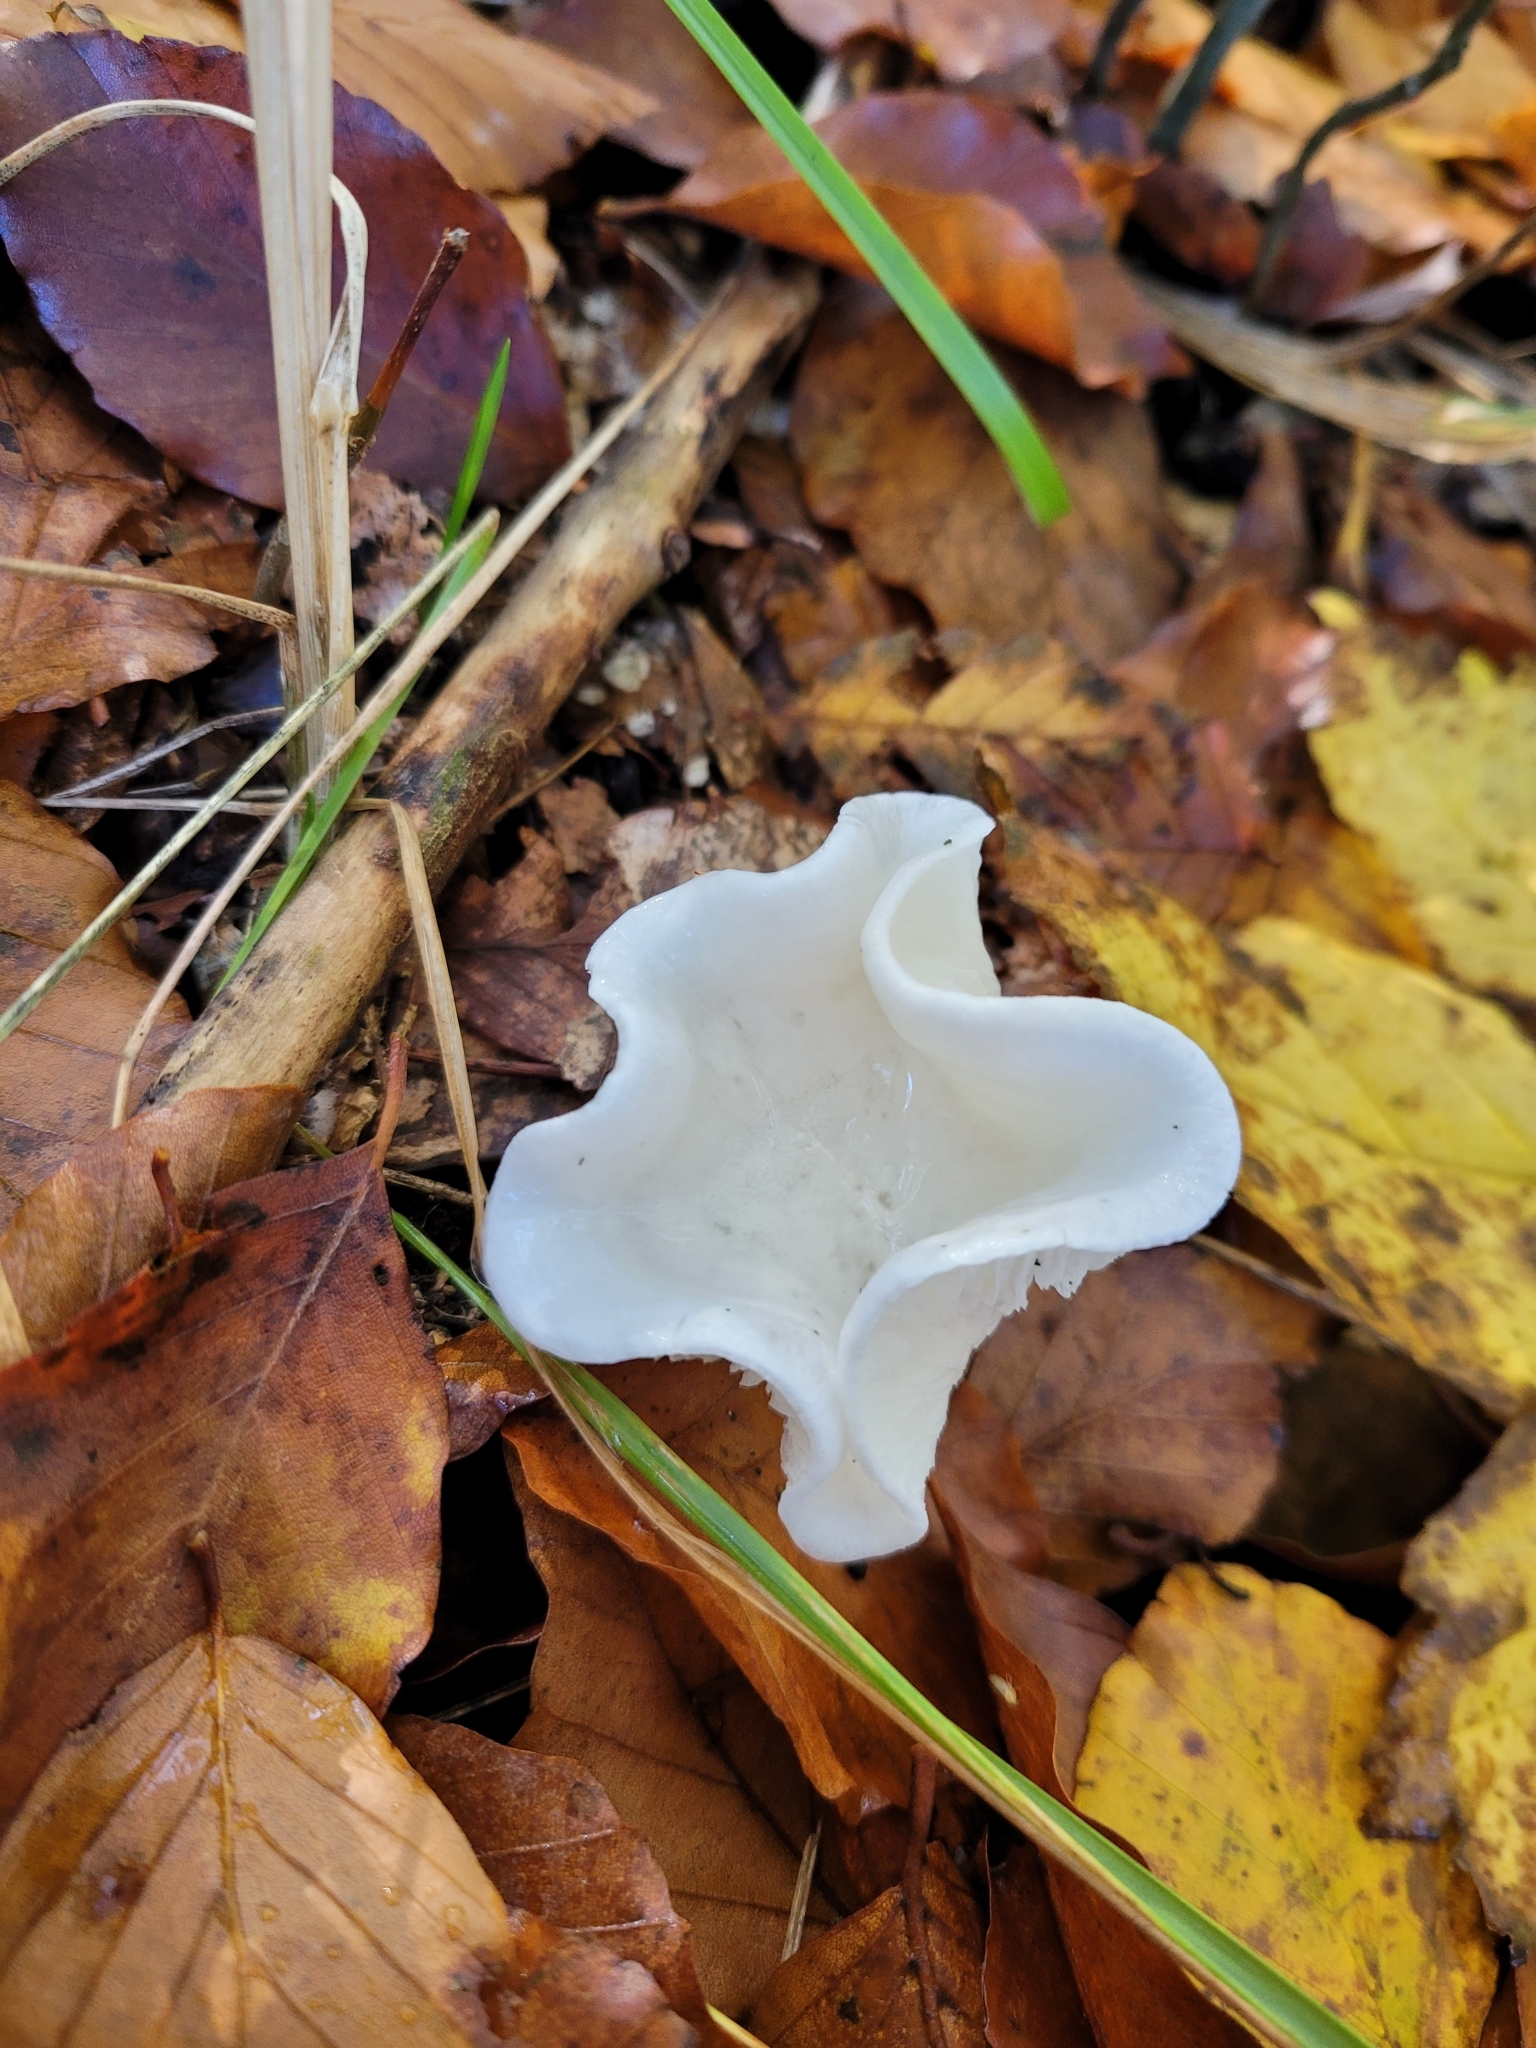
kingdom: Fungi
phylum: Basidiomycota
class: Agaricomycetes
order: Agaricales
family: Hygrophoraceae
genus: Hygrophorus
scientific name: Hygrophorus eburneus
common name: Ivory wax-cap
